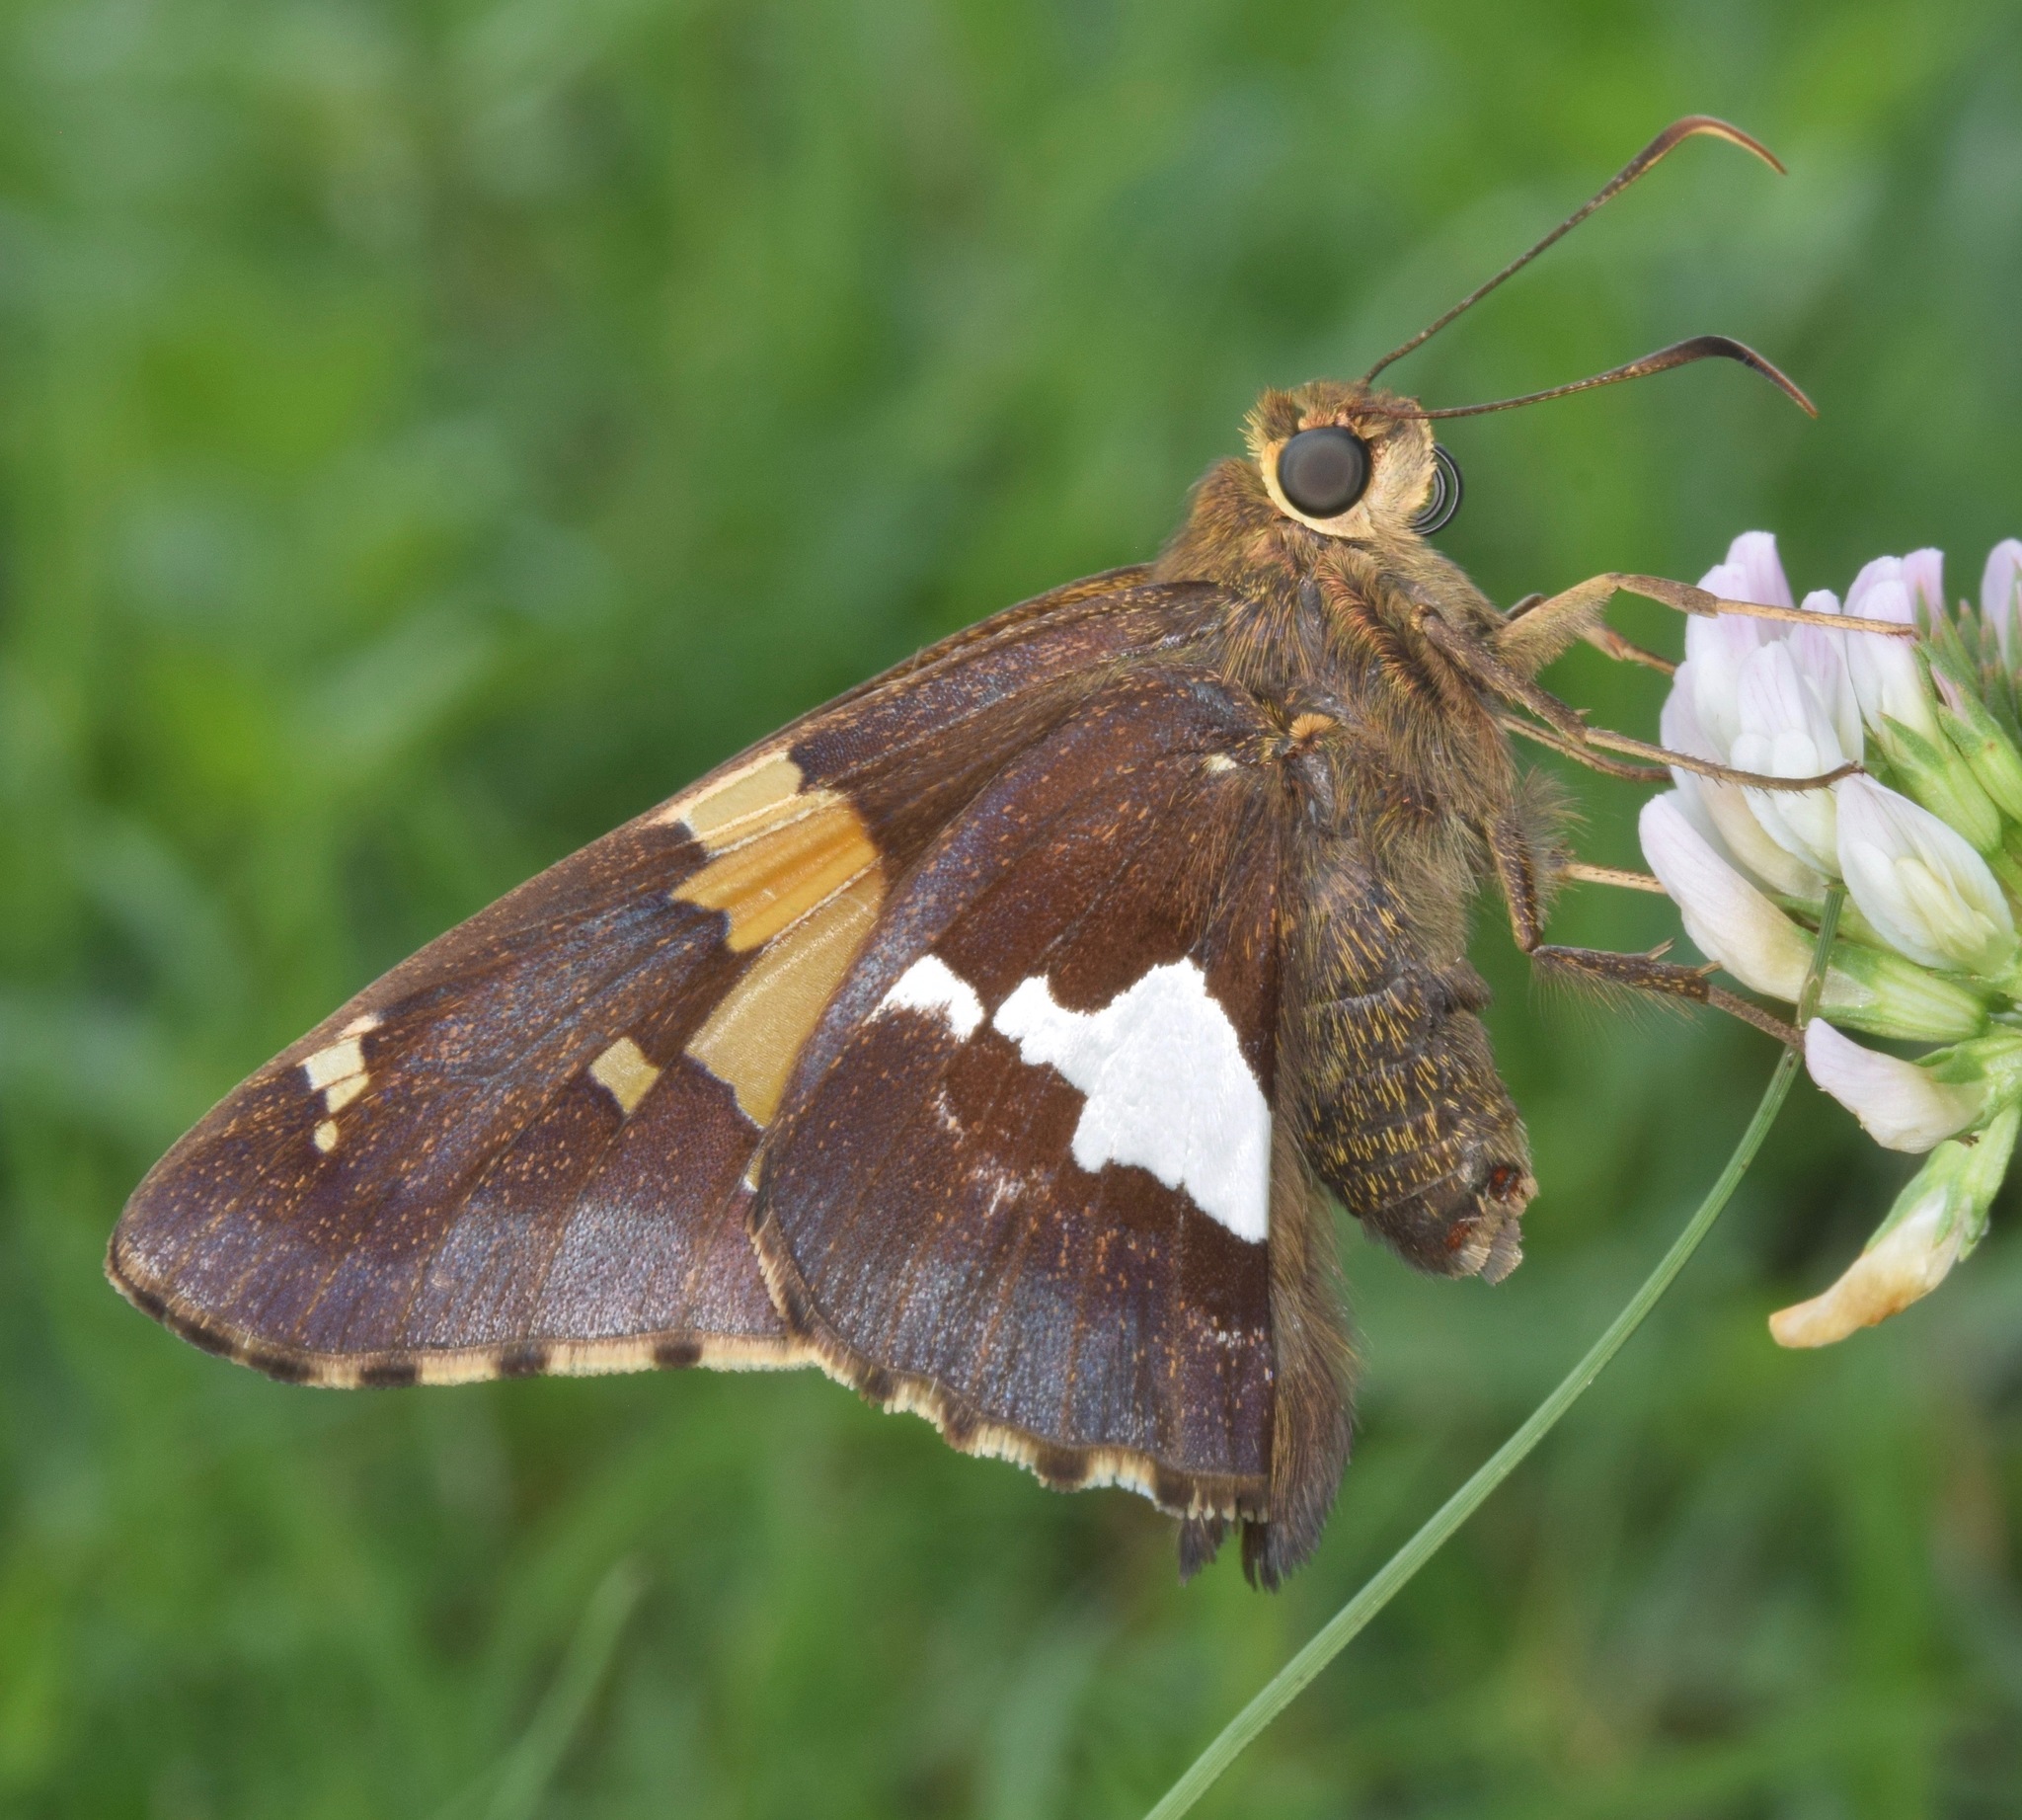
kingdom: Animalia
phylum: Arthropoda
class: Insecta
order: Lepidoptera
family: Hesperiidae
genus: Epargyreus
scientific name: Epargyreus clarus
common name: Silver-spotted skipper
